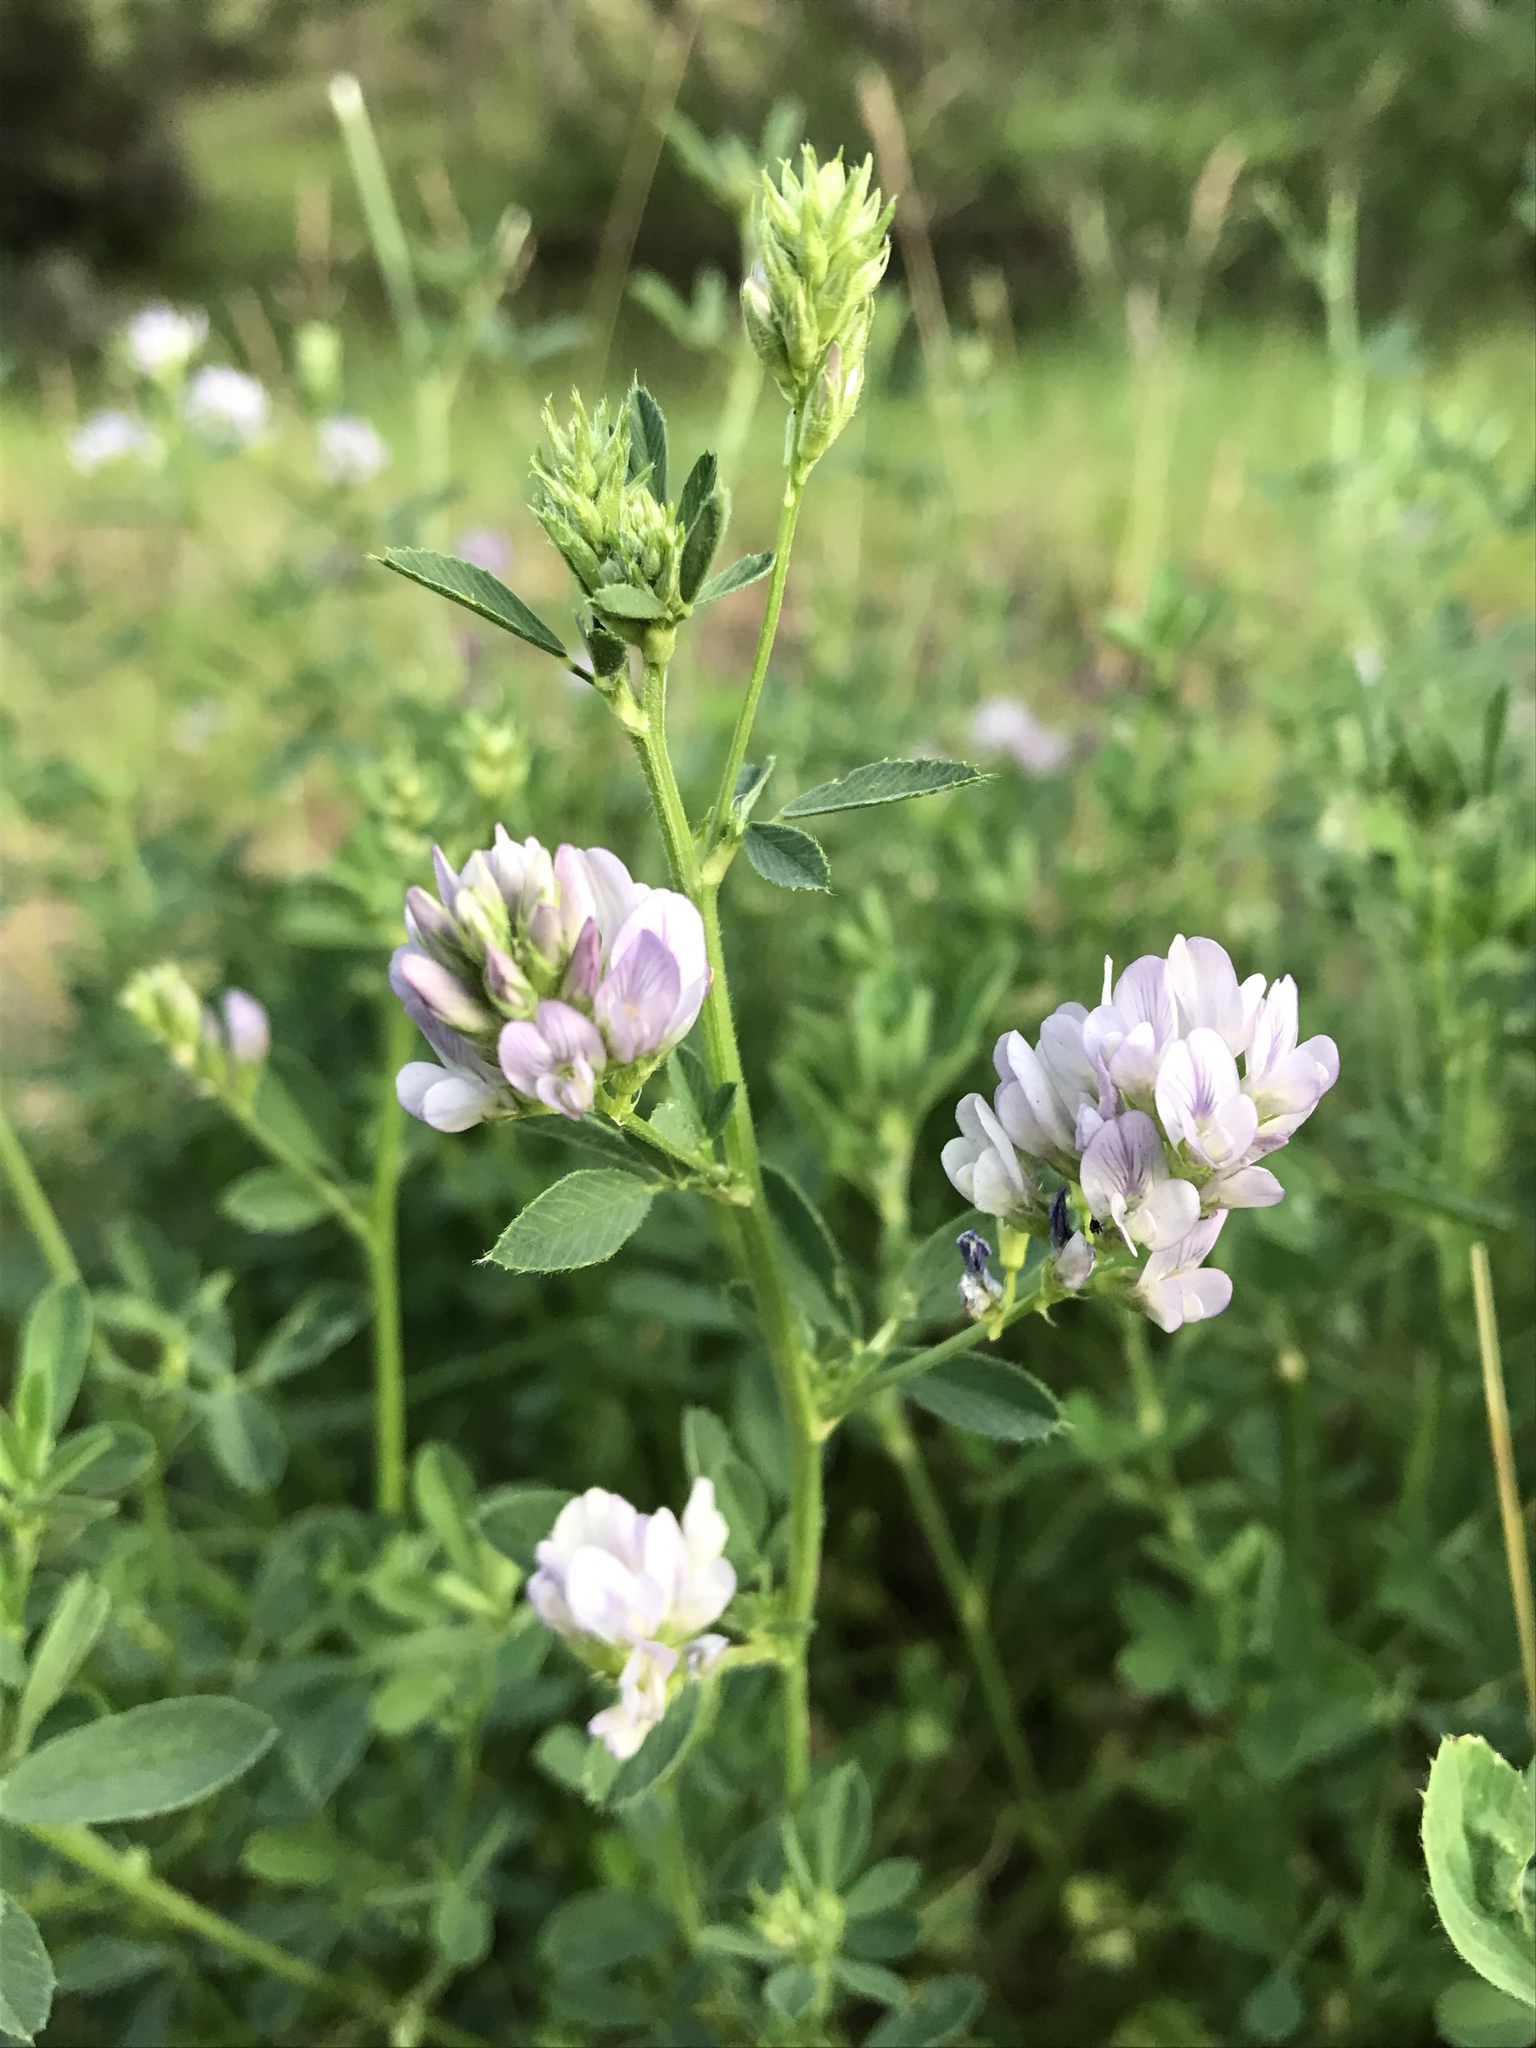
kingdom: Plantae
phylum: Tracheophyta
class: Magnoliopsida
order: Fabales
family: Fabaceae
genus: Medicago
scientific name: Medicago sativa
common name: Alfalfa
